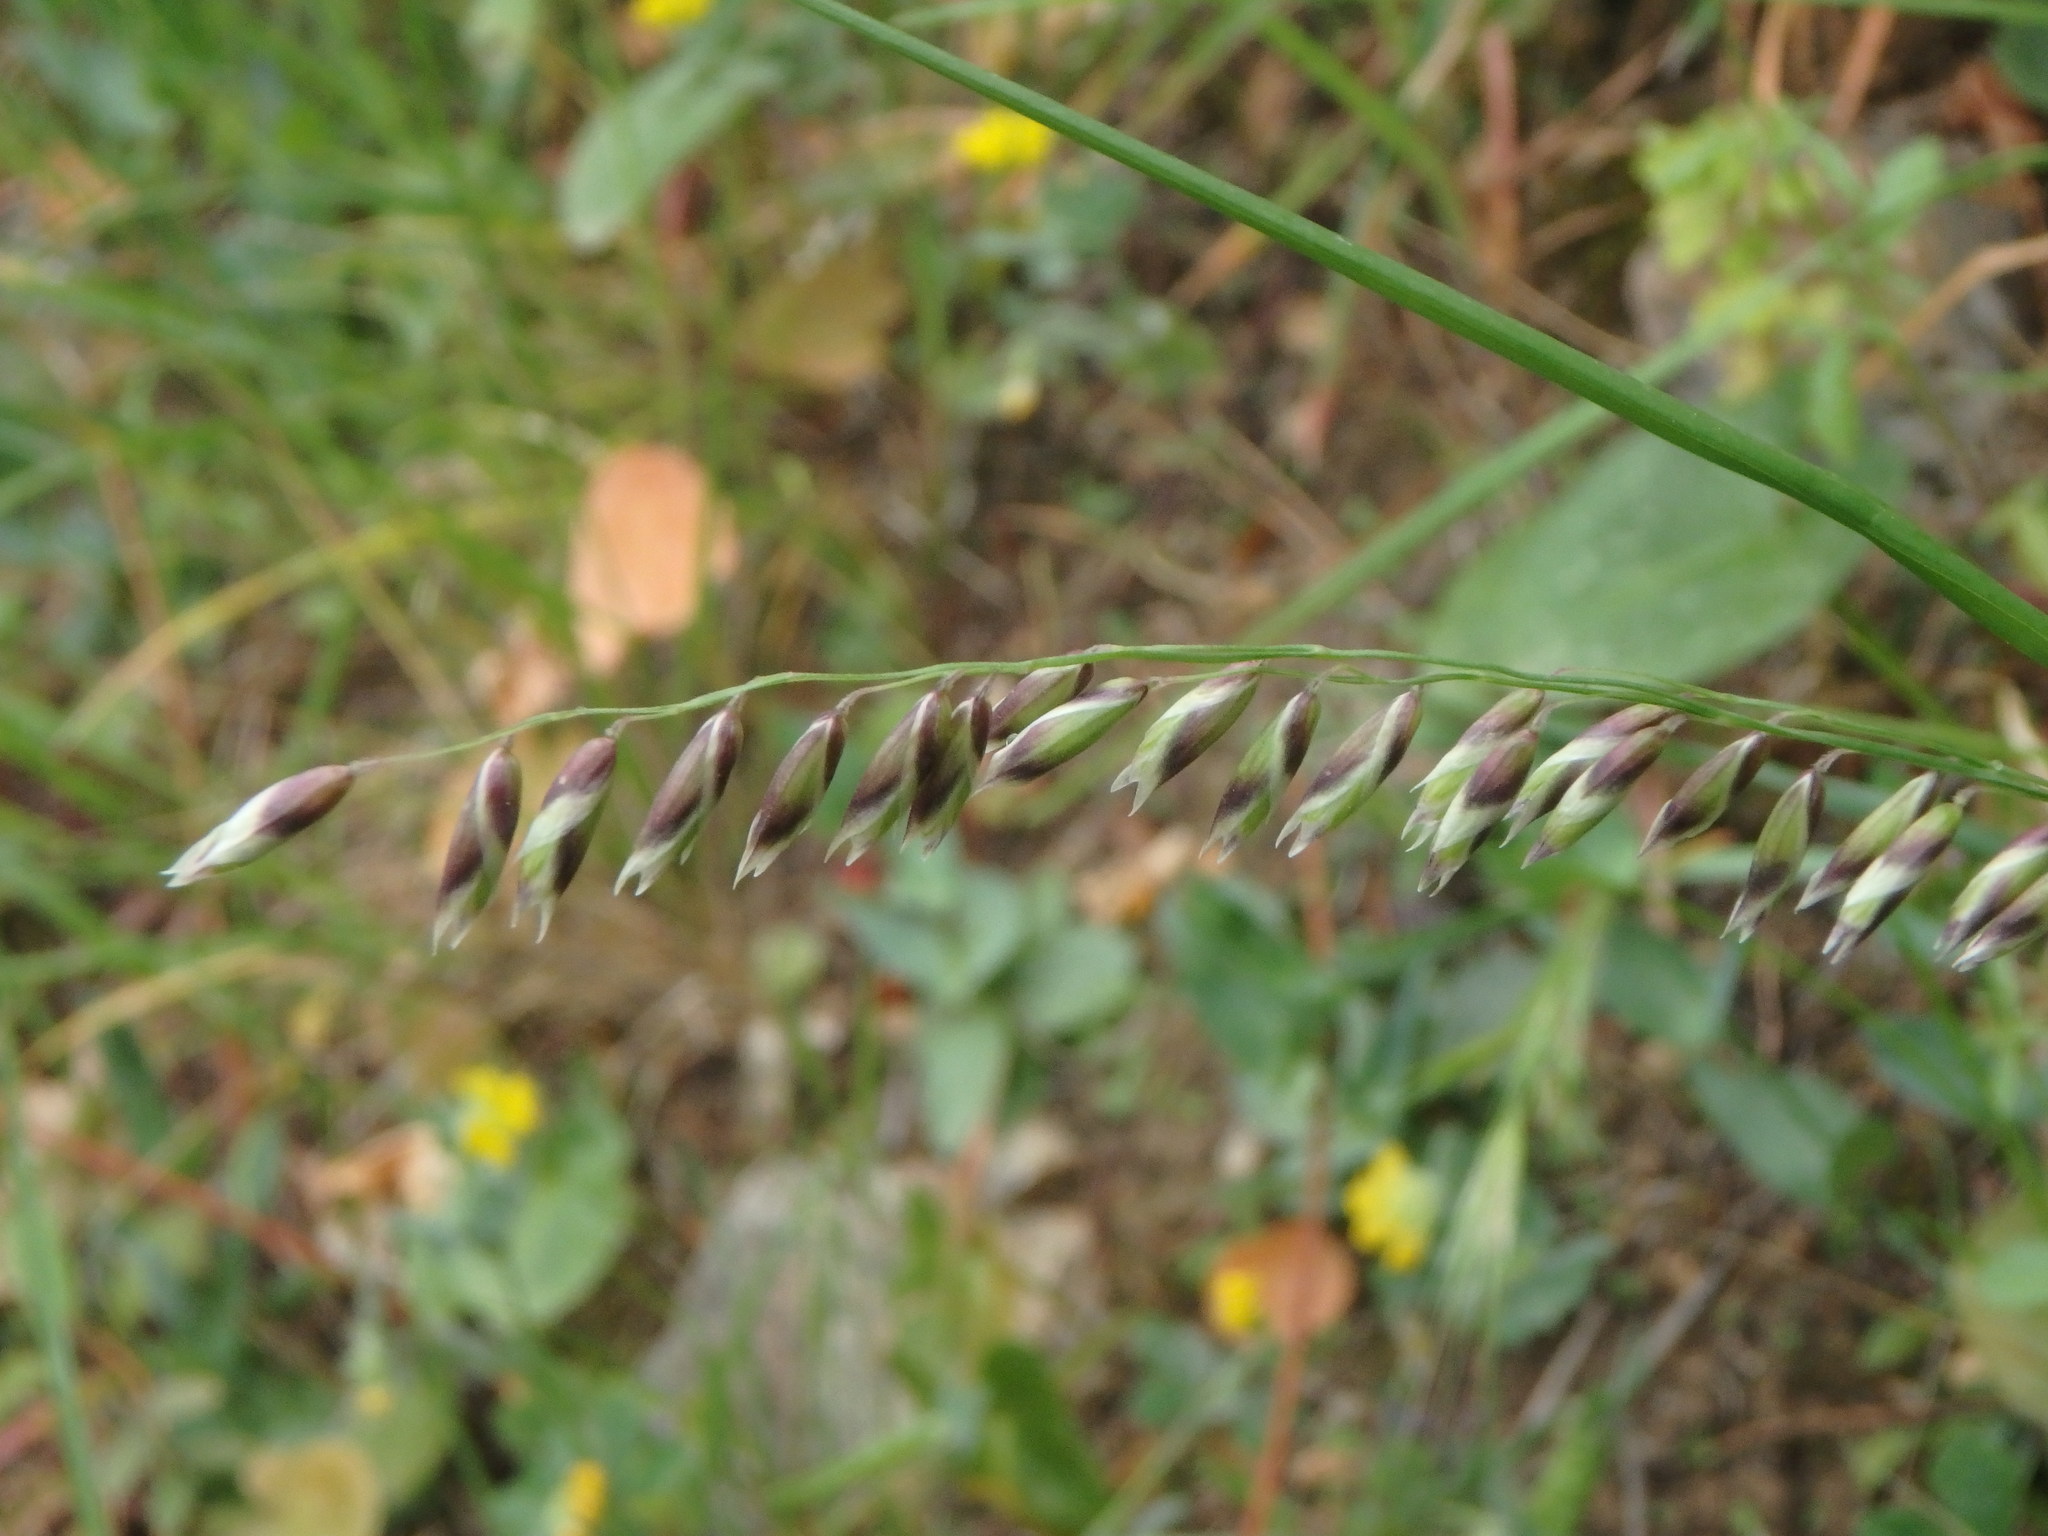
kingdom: Plantae
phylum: Tracheophyta
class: Liliopsida
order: Poales
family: Poaceae
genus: Melica
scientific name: Melica minuta
